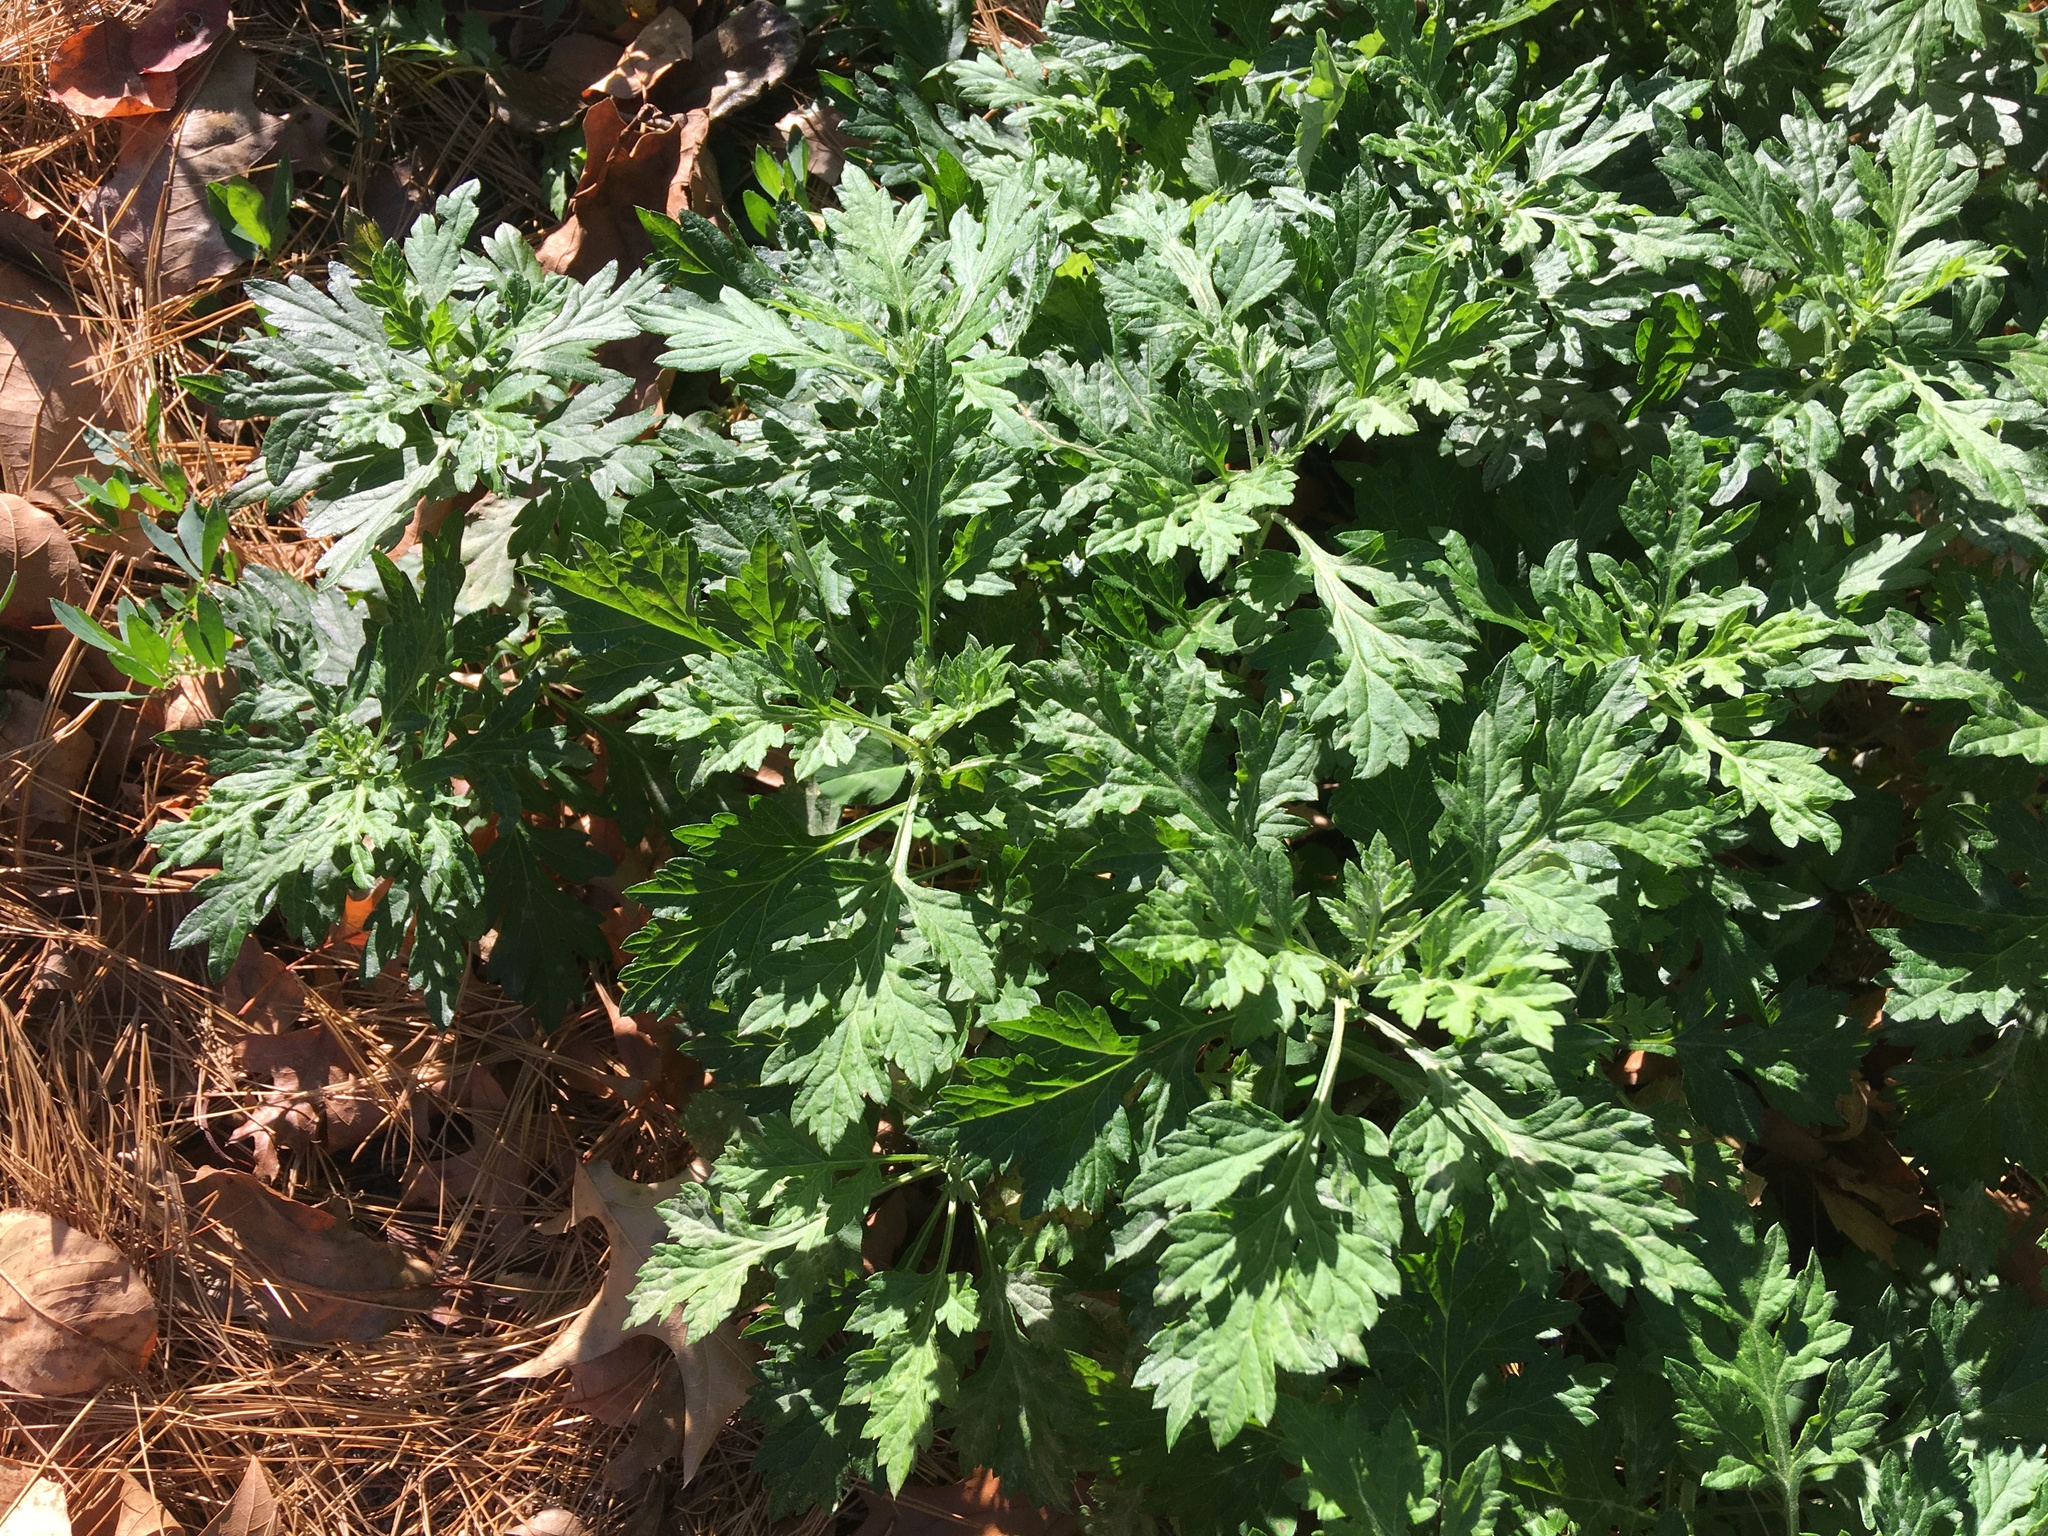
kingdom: Plantae
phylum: Tracheophyta
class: Magnoliopsida
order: Asterales
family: Asteraceae
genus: Artemisia
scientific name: Artemisia vulgaris
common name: Mugwort
